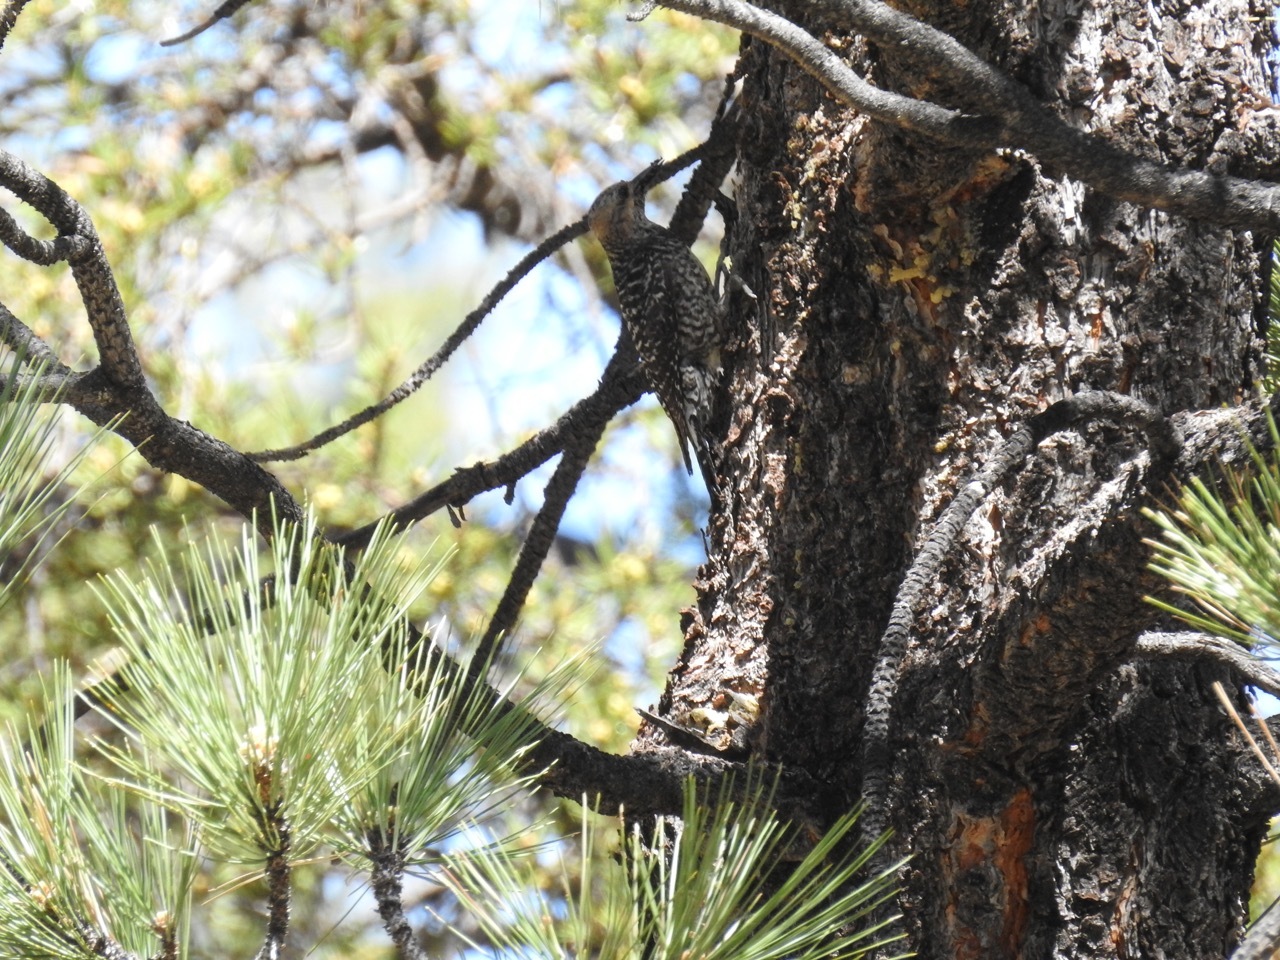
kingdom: Animalia
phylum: Chordata
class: Aves
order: Piciformes
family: Picidae
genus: Sphyrapicus
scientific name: Sphyrapicus thyroideus
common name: Williamson's sapsucker
